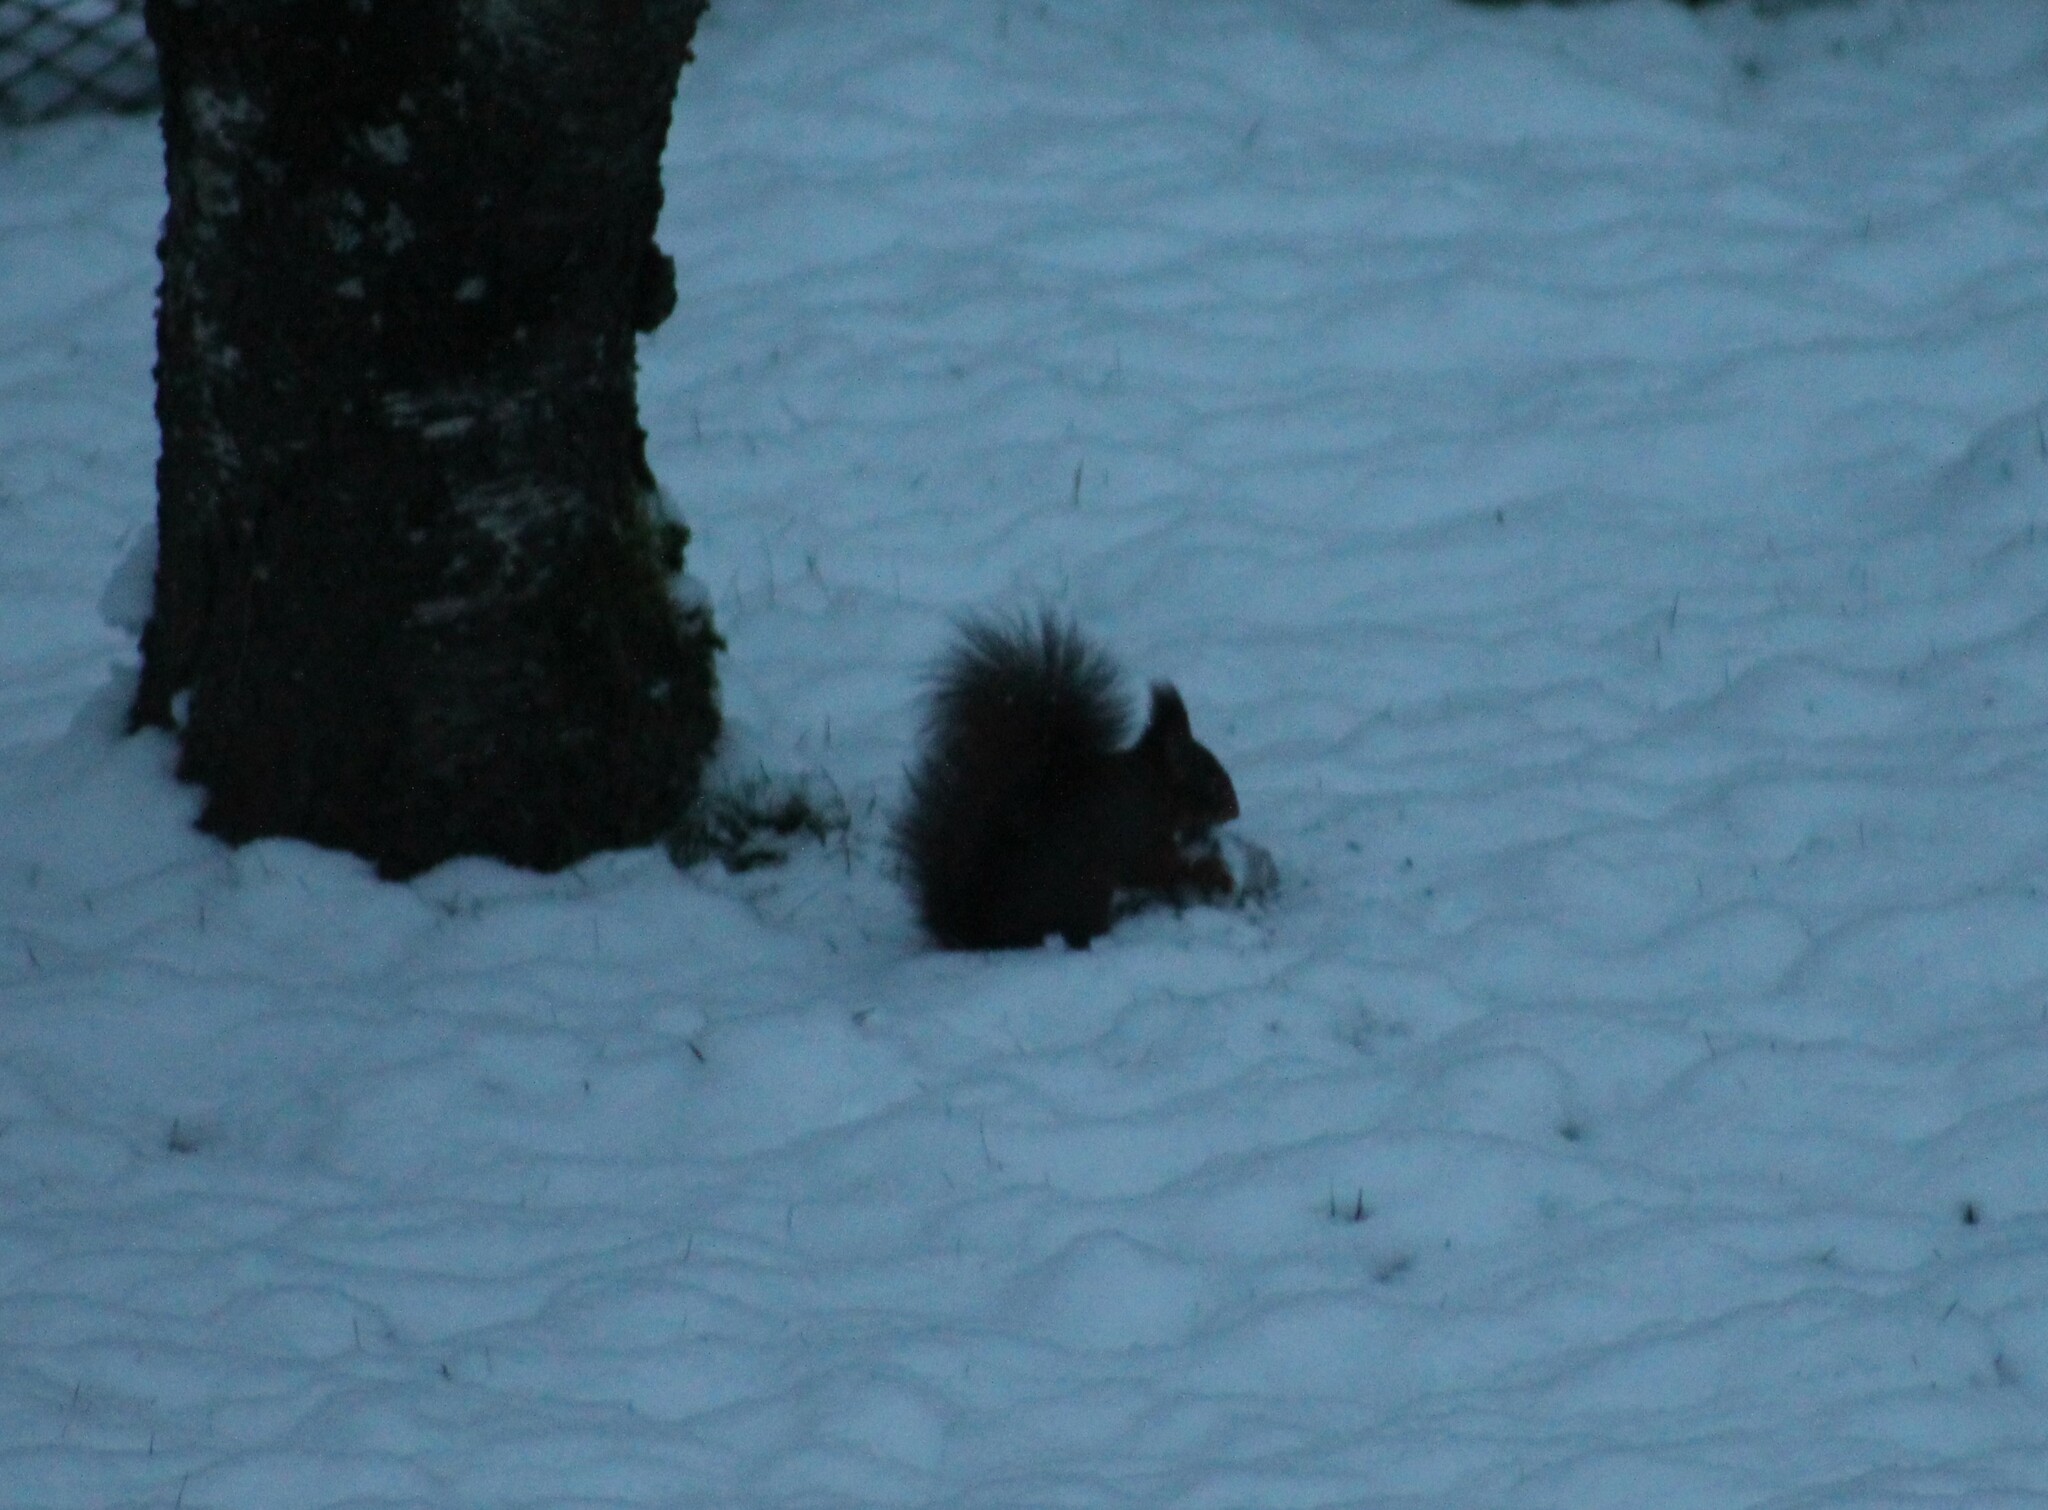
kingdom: Animalia
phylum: Chordata
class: Mammalia
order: Rodentia
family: Sciuridae
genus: Sciurus
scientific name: Sciurus vulgaris
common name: Eurasian red squirrel
